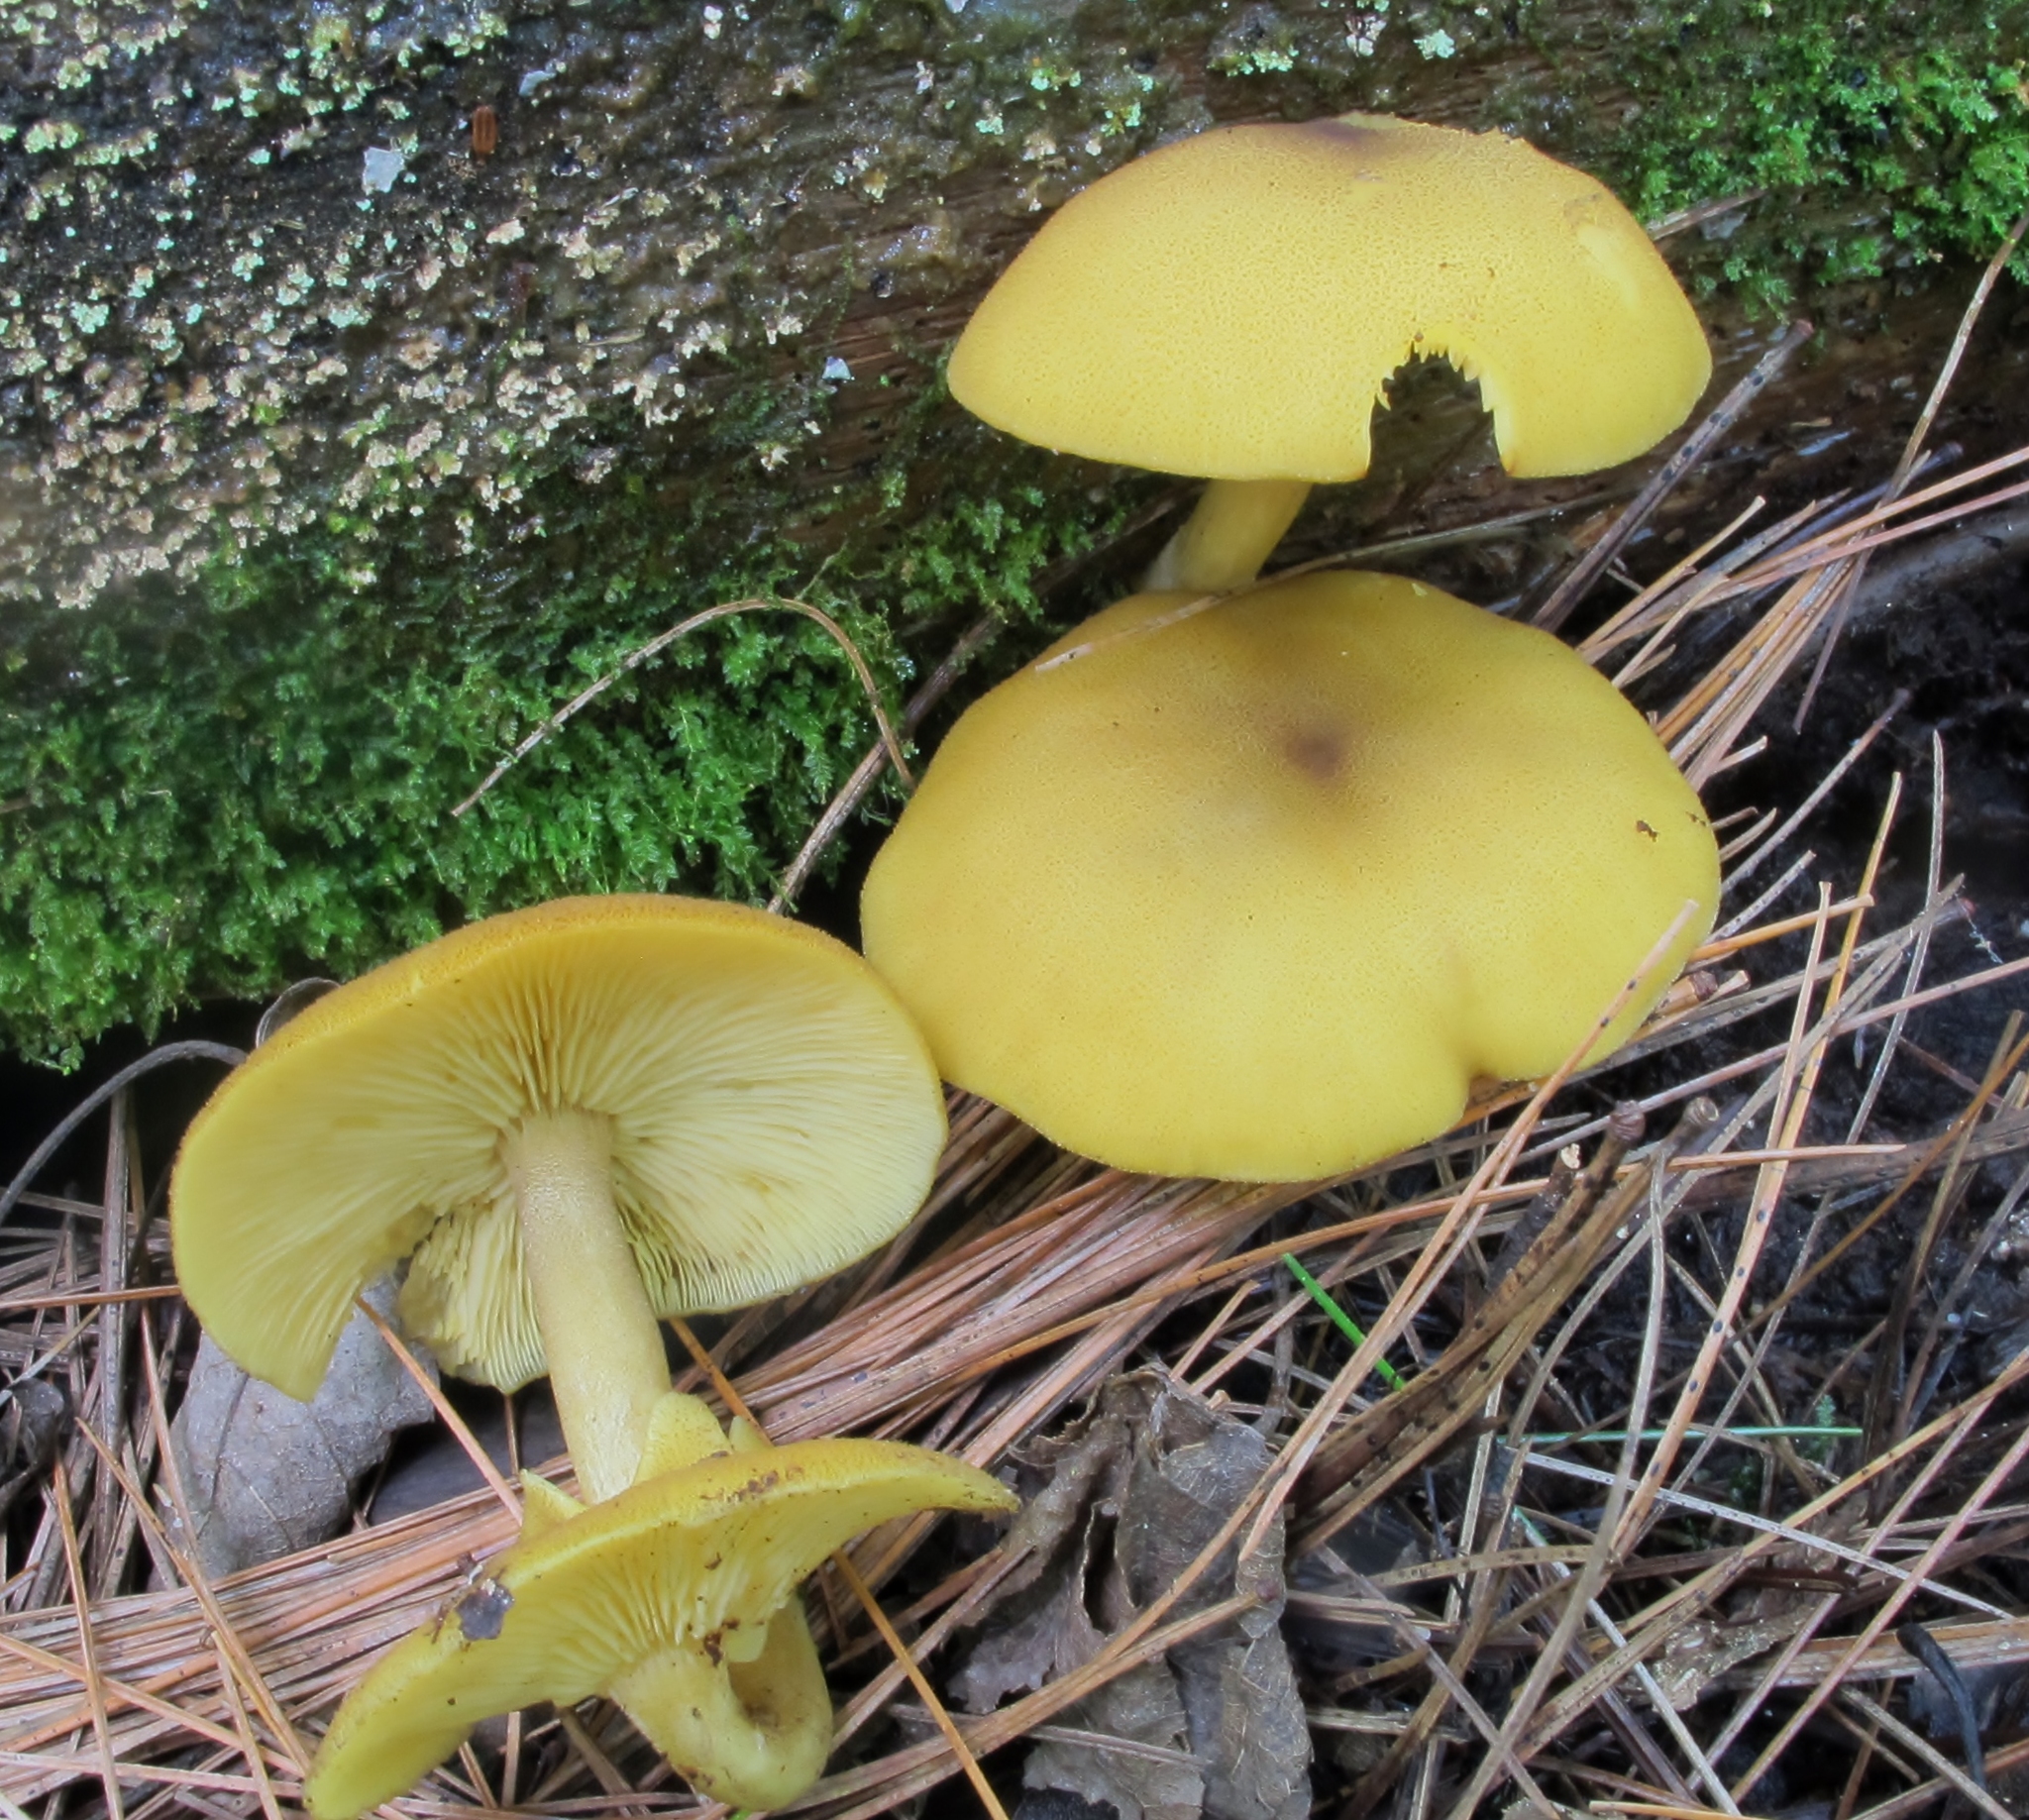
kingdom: Fungi
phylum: Basidiomycota
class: Agaricomycetes
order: Agaricales
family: Tricholomataceae
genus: Tricholomopsis
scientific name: Tricholomopsis decora
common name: Prunes and custard
